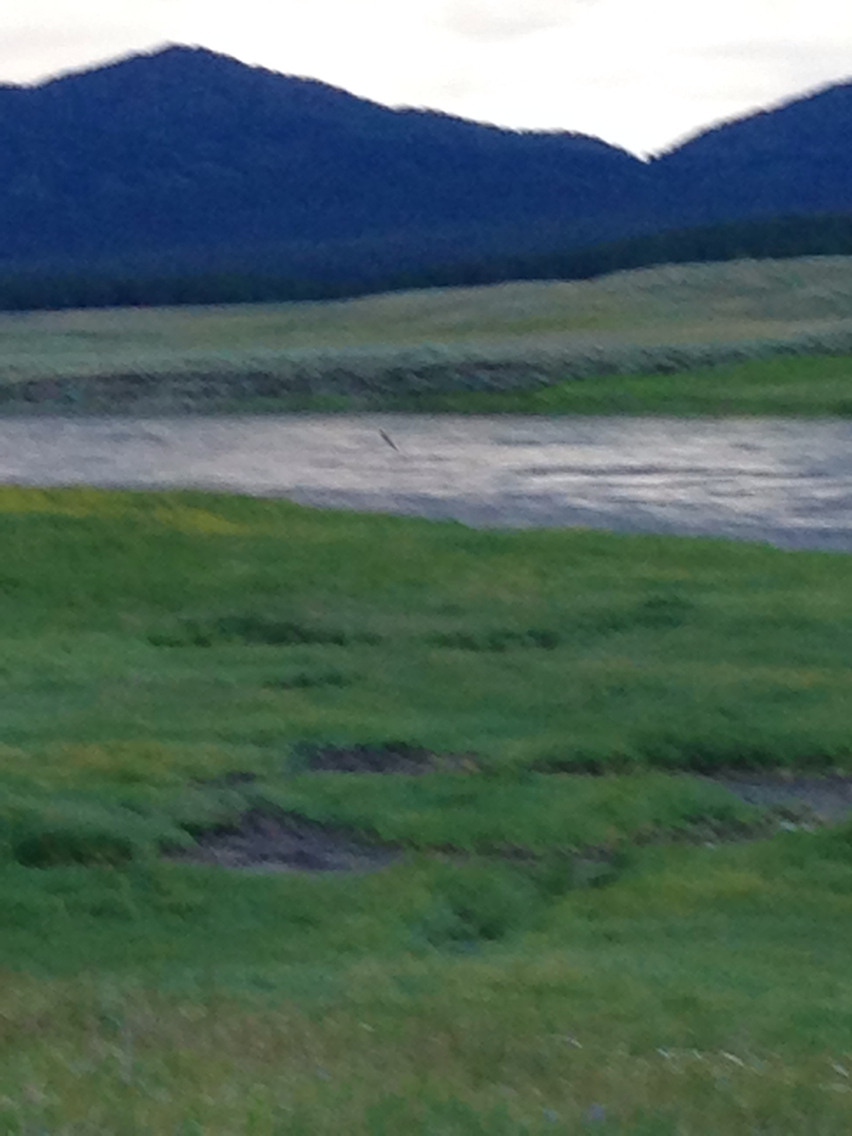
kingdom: Animalia
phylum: Chordata
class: Aves
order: Accipitriformes
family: Accipitridae
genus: Haliaeetus
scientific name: Haliaeetus leucocephalus
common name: Bald eagle
